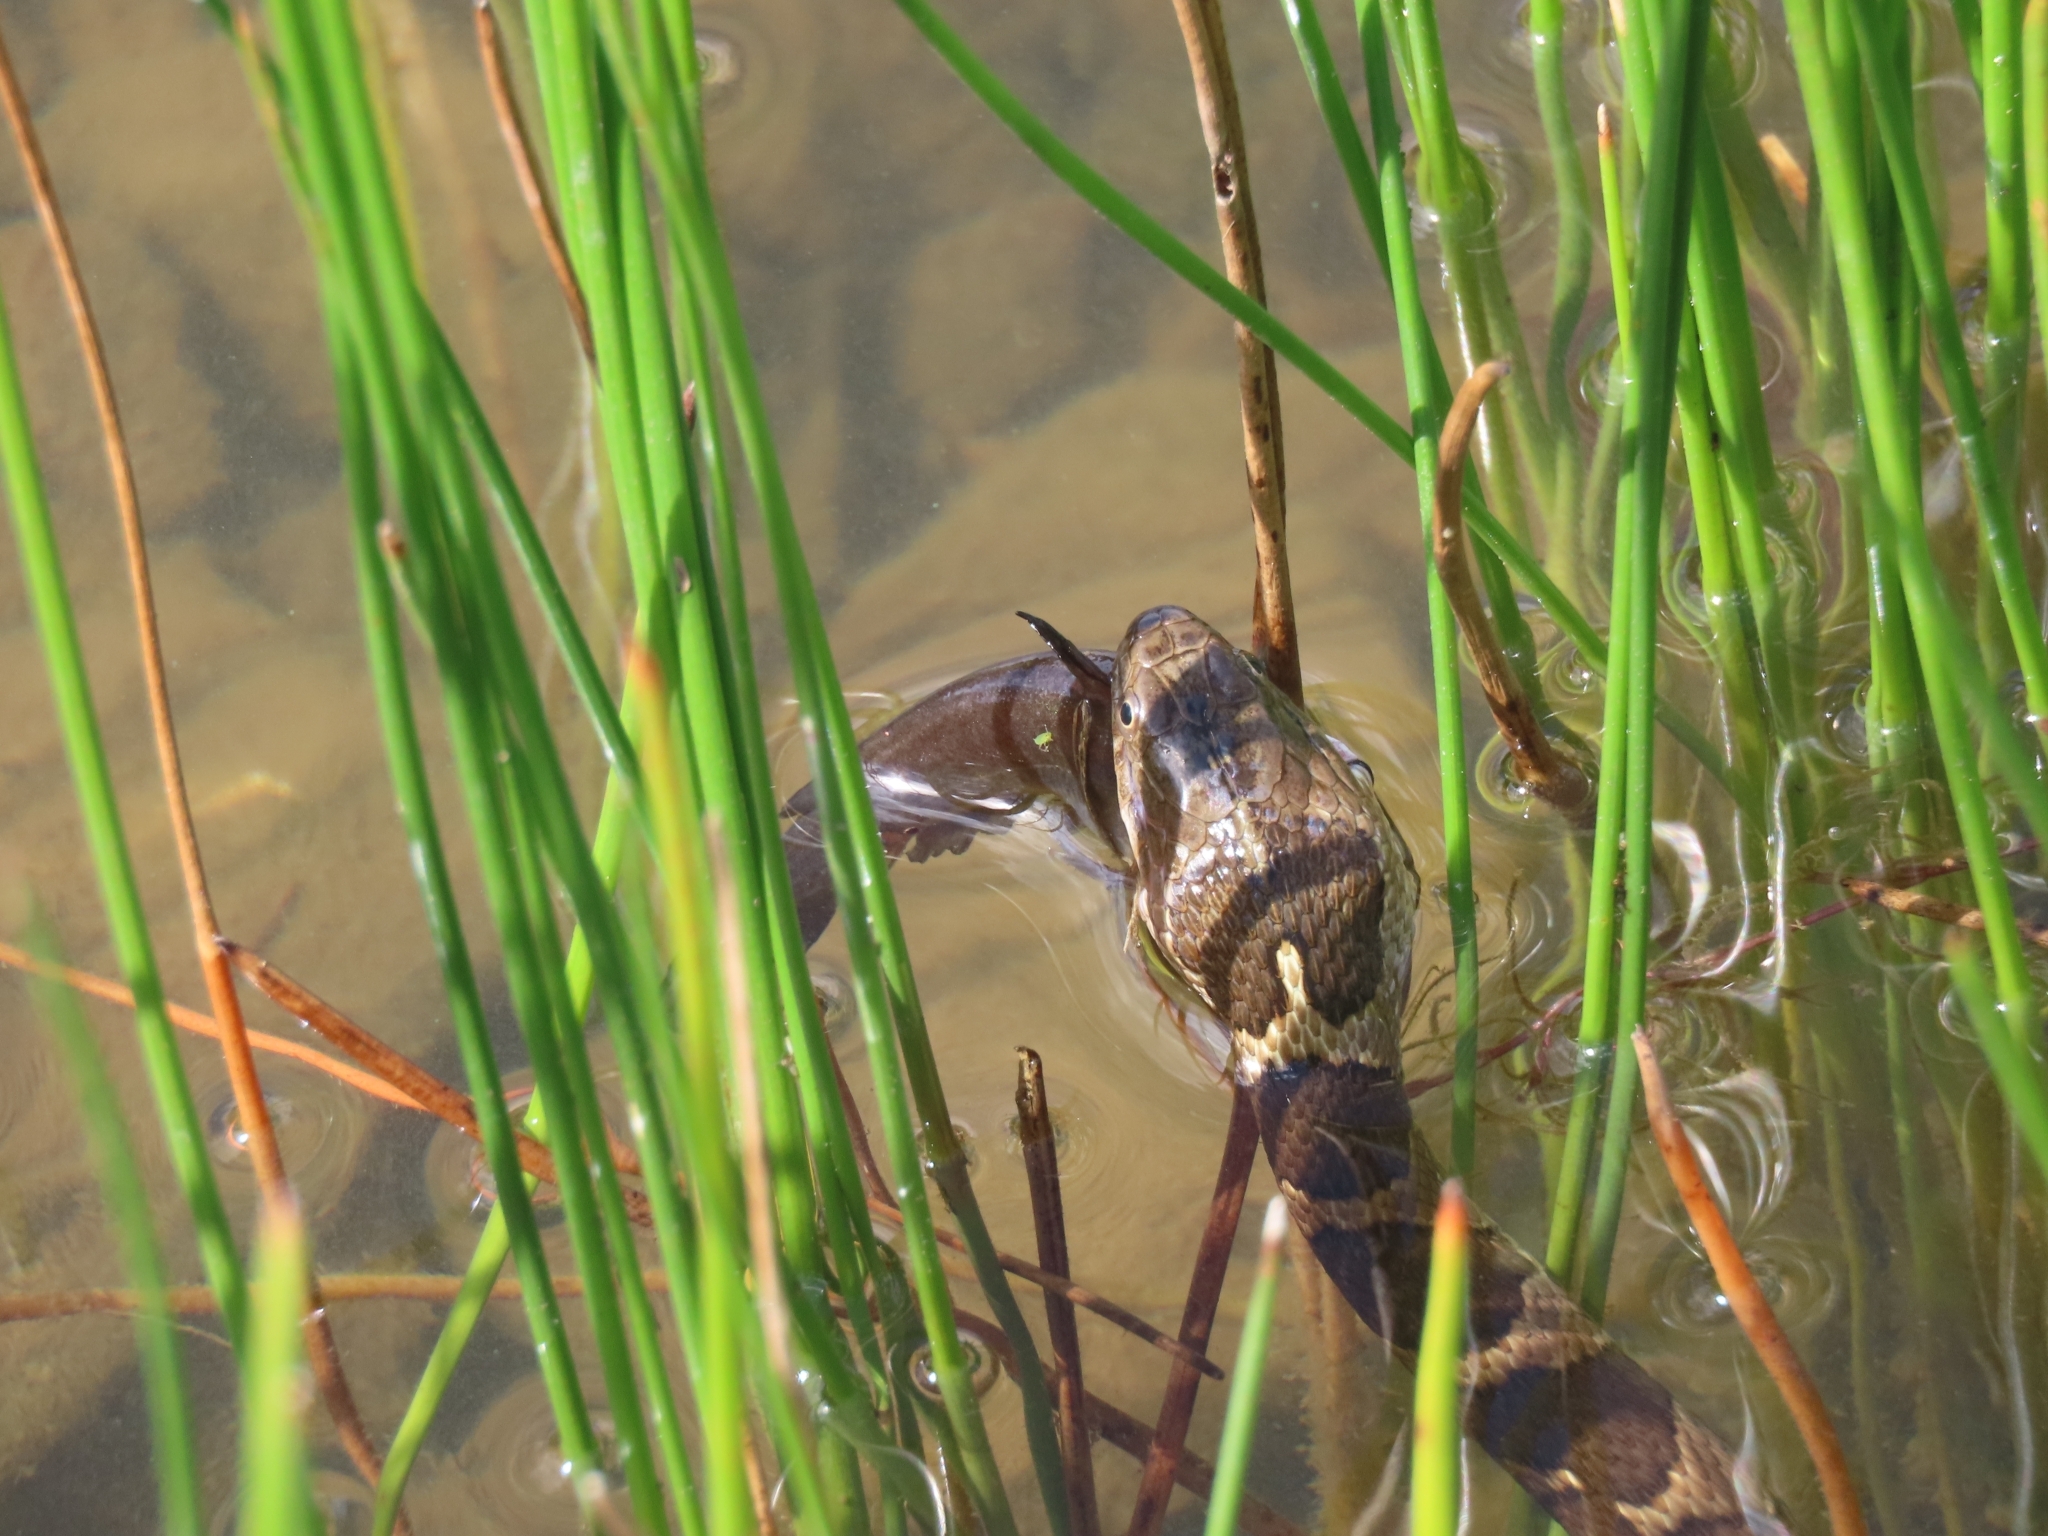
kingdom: Animalia
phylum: Chordata
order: Siluriformes
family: Ictaluridae
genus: Ameiurus
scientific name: Ameiurus nebulosus
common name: Brown bullhead
